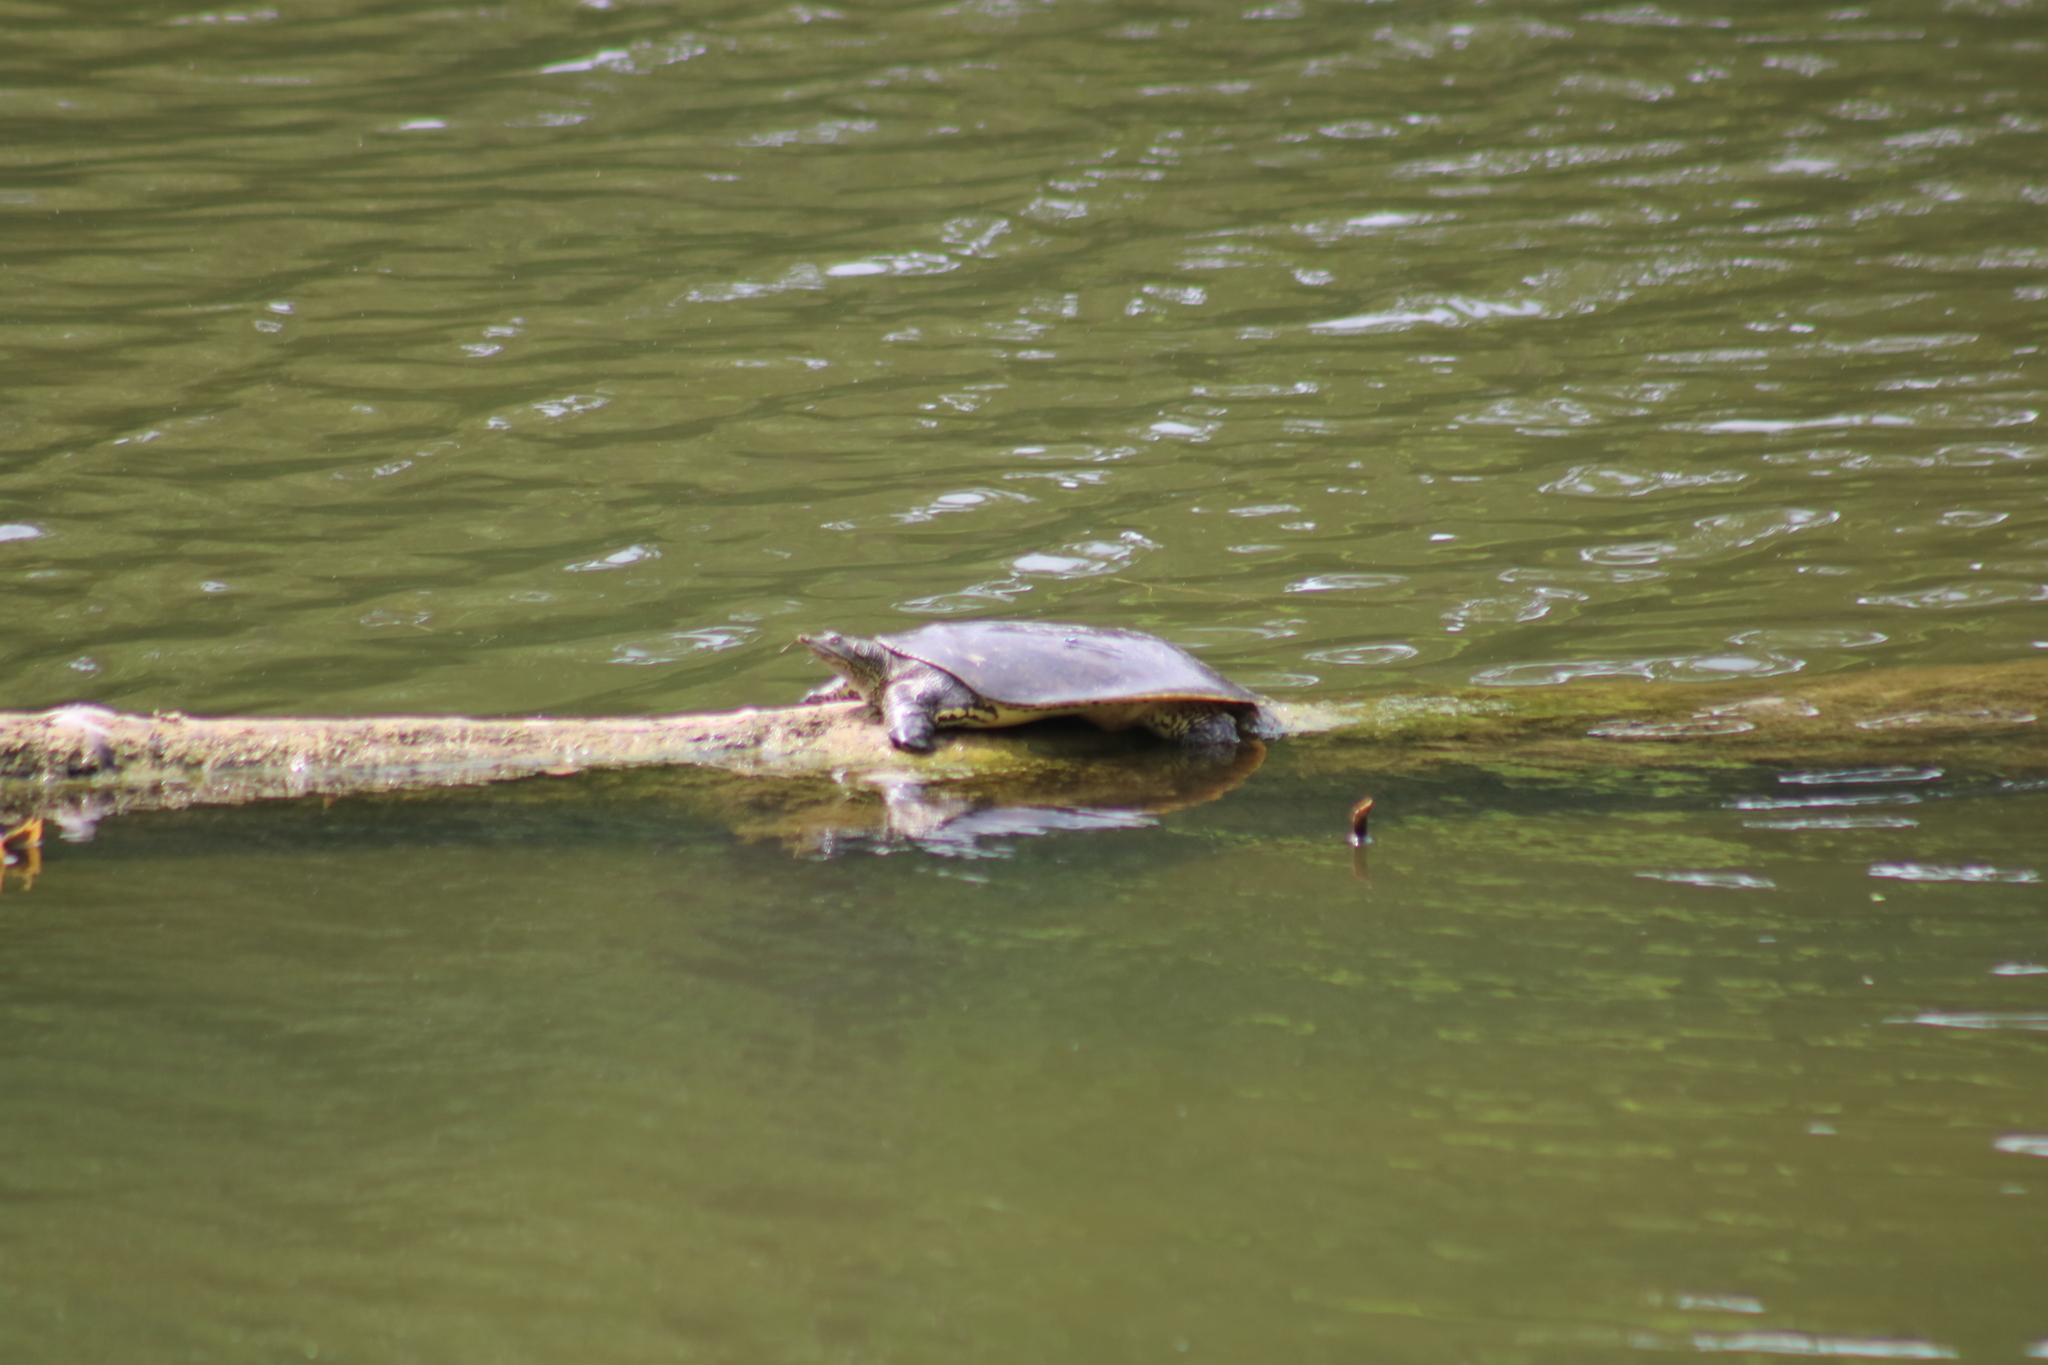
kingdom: Animalia
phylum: Chordata
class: Testudines
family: Trionychidae
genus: Apalone
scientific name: Apalone spinifera
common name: Spiny softshell turtle
